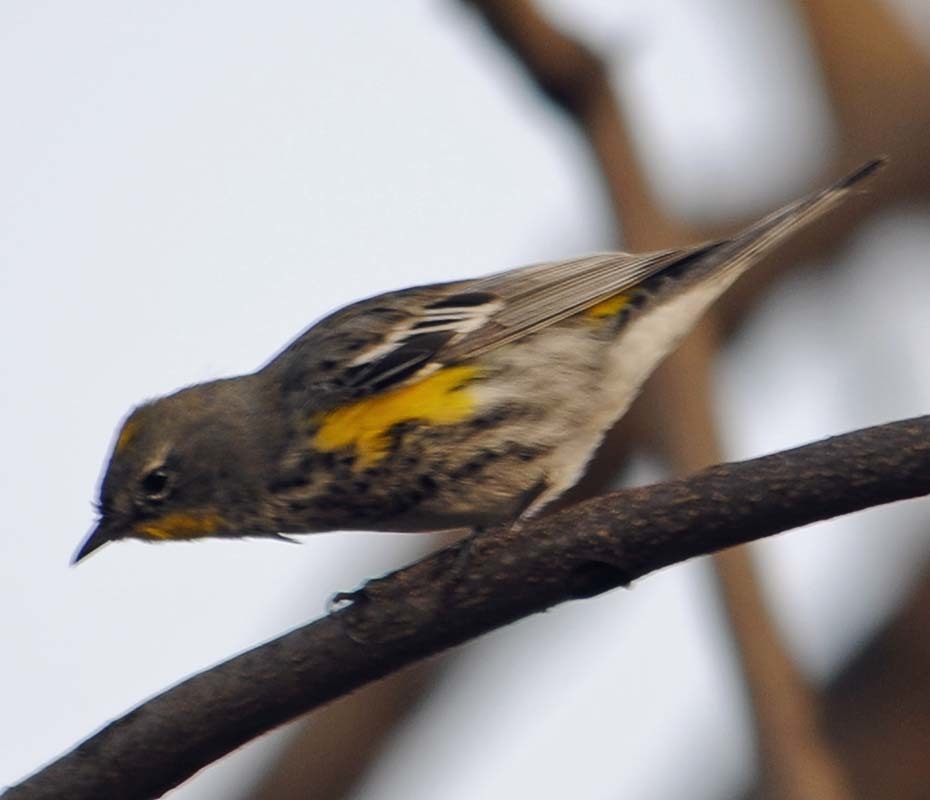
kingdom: Animalia
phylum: Chordata
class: Aves
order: Passeriformes
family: Parulidae
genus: Setophaga
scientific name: Setophaga auduboni
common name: Audubon's warbler
